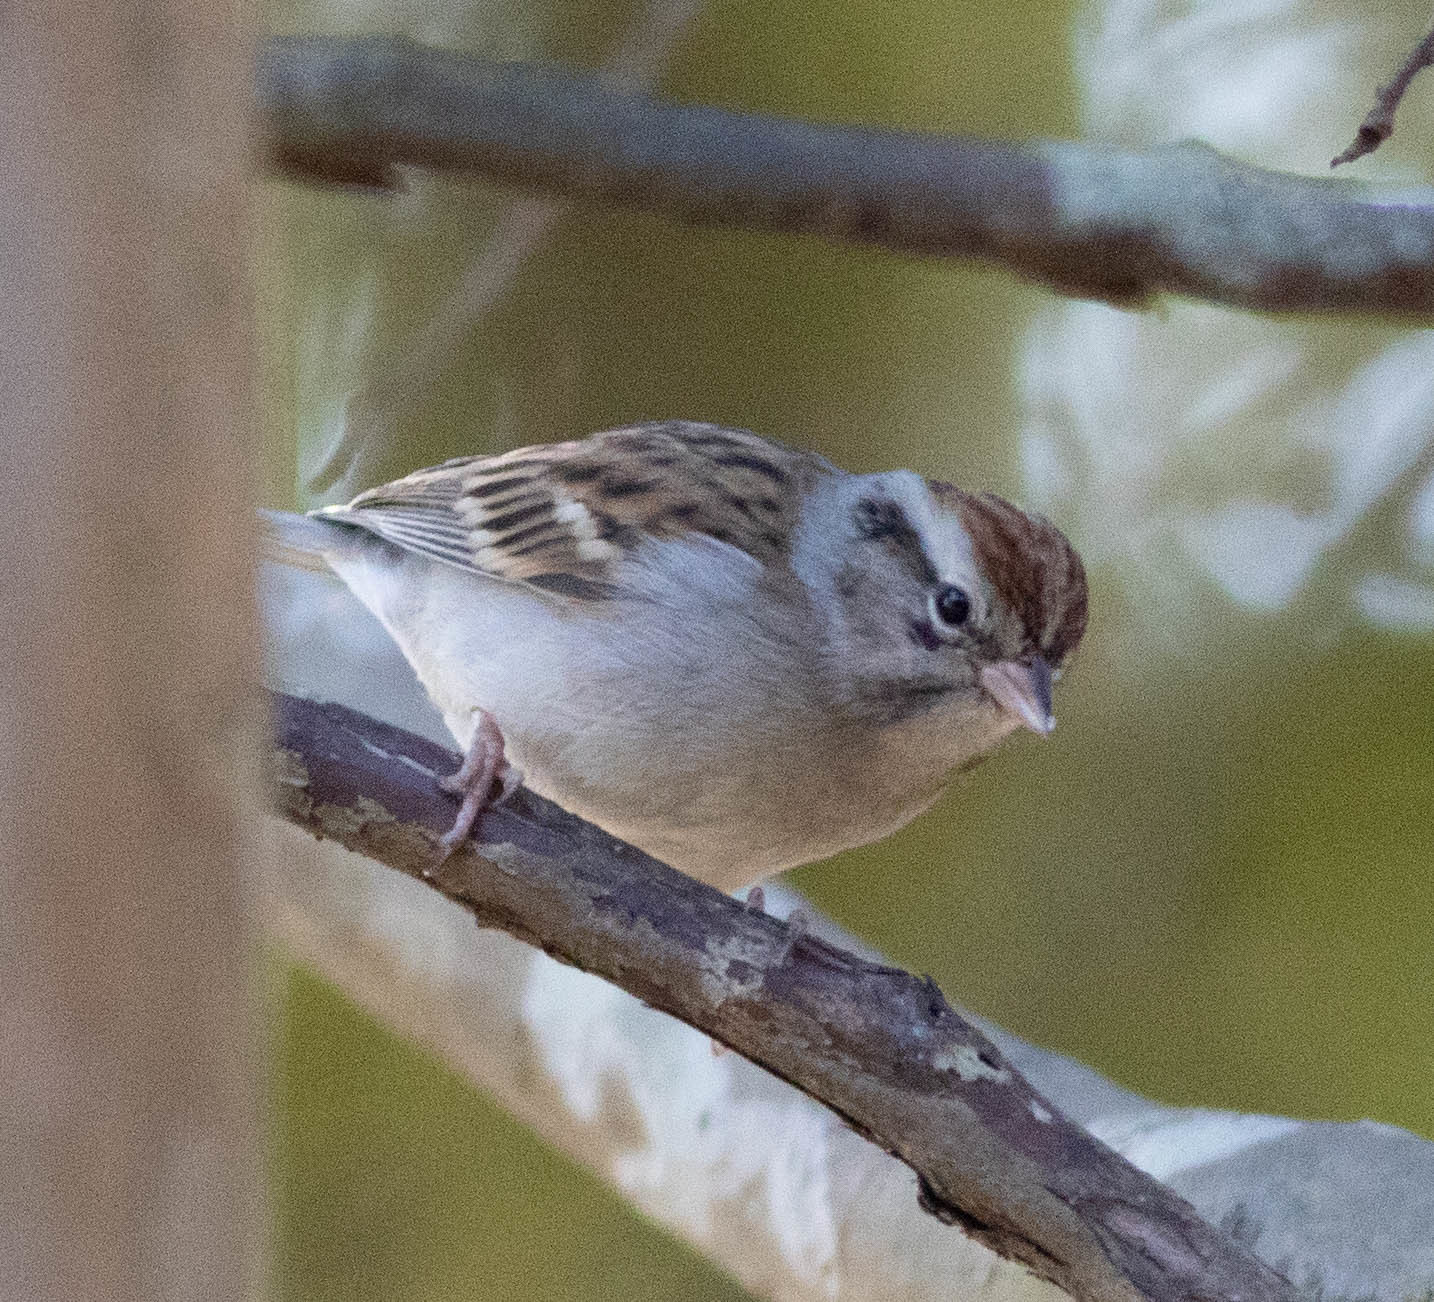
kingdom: Animalia
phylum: Chordata
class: Aves
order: Passeriformes
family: Passerellidae
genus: Spizella
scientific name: Spizella passerina
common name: Chipping sparrow
